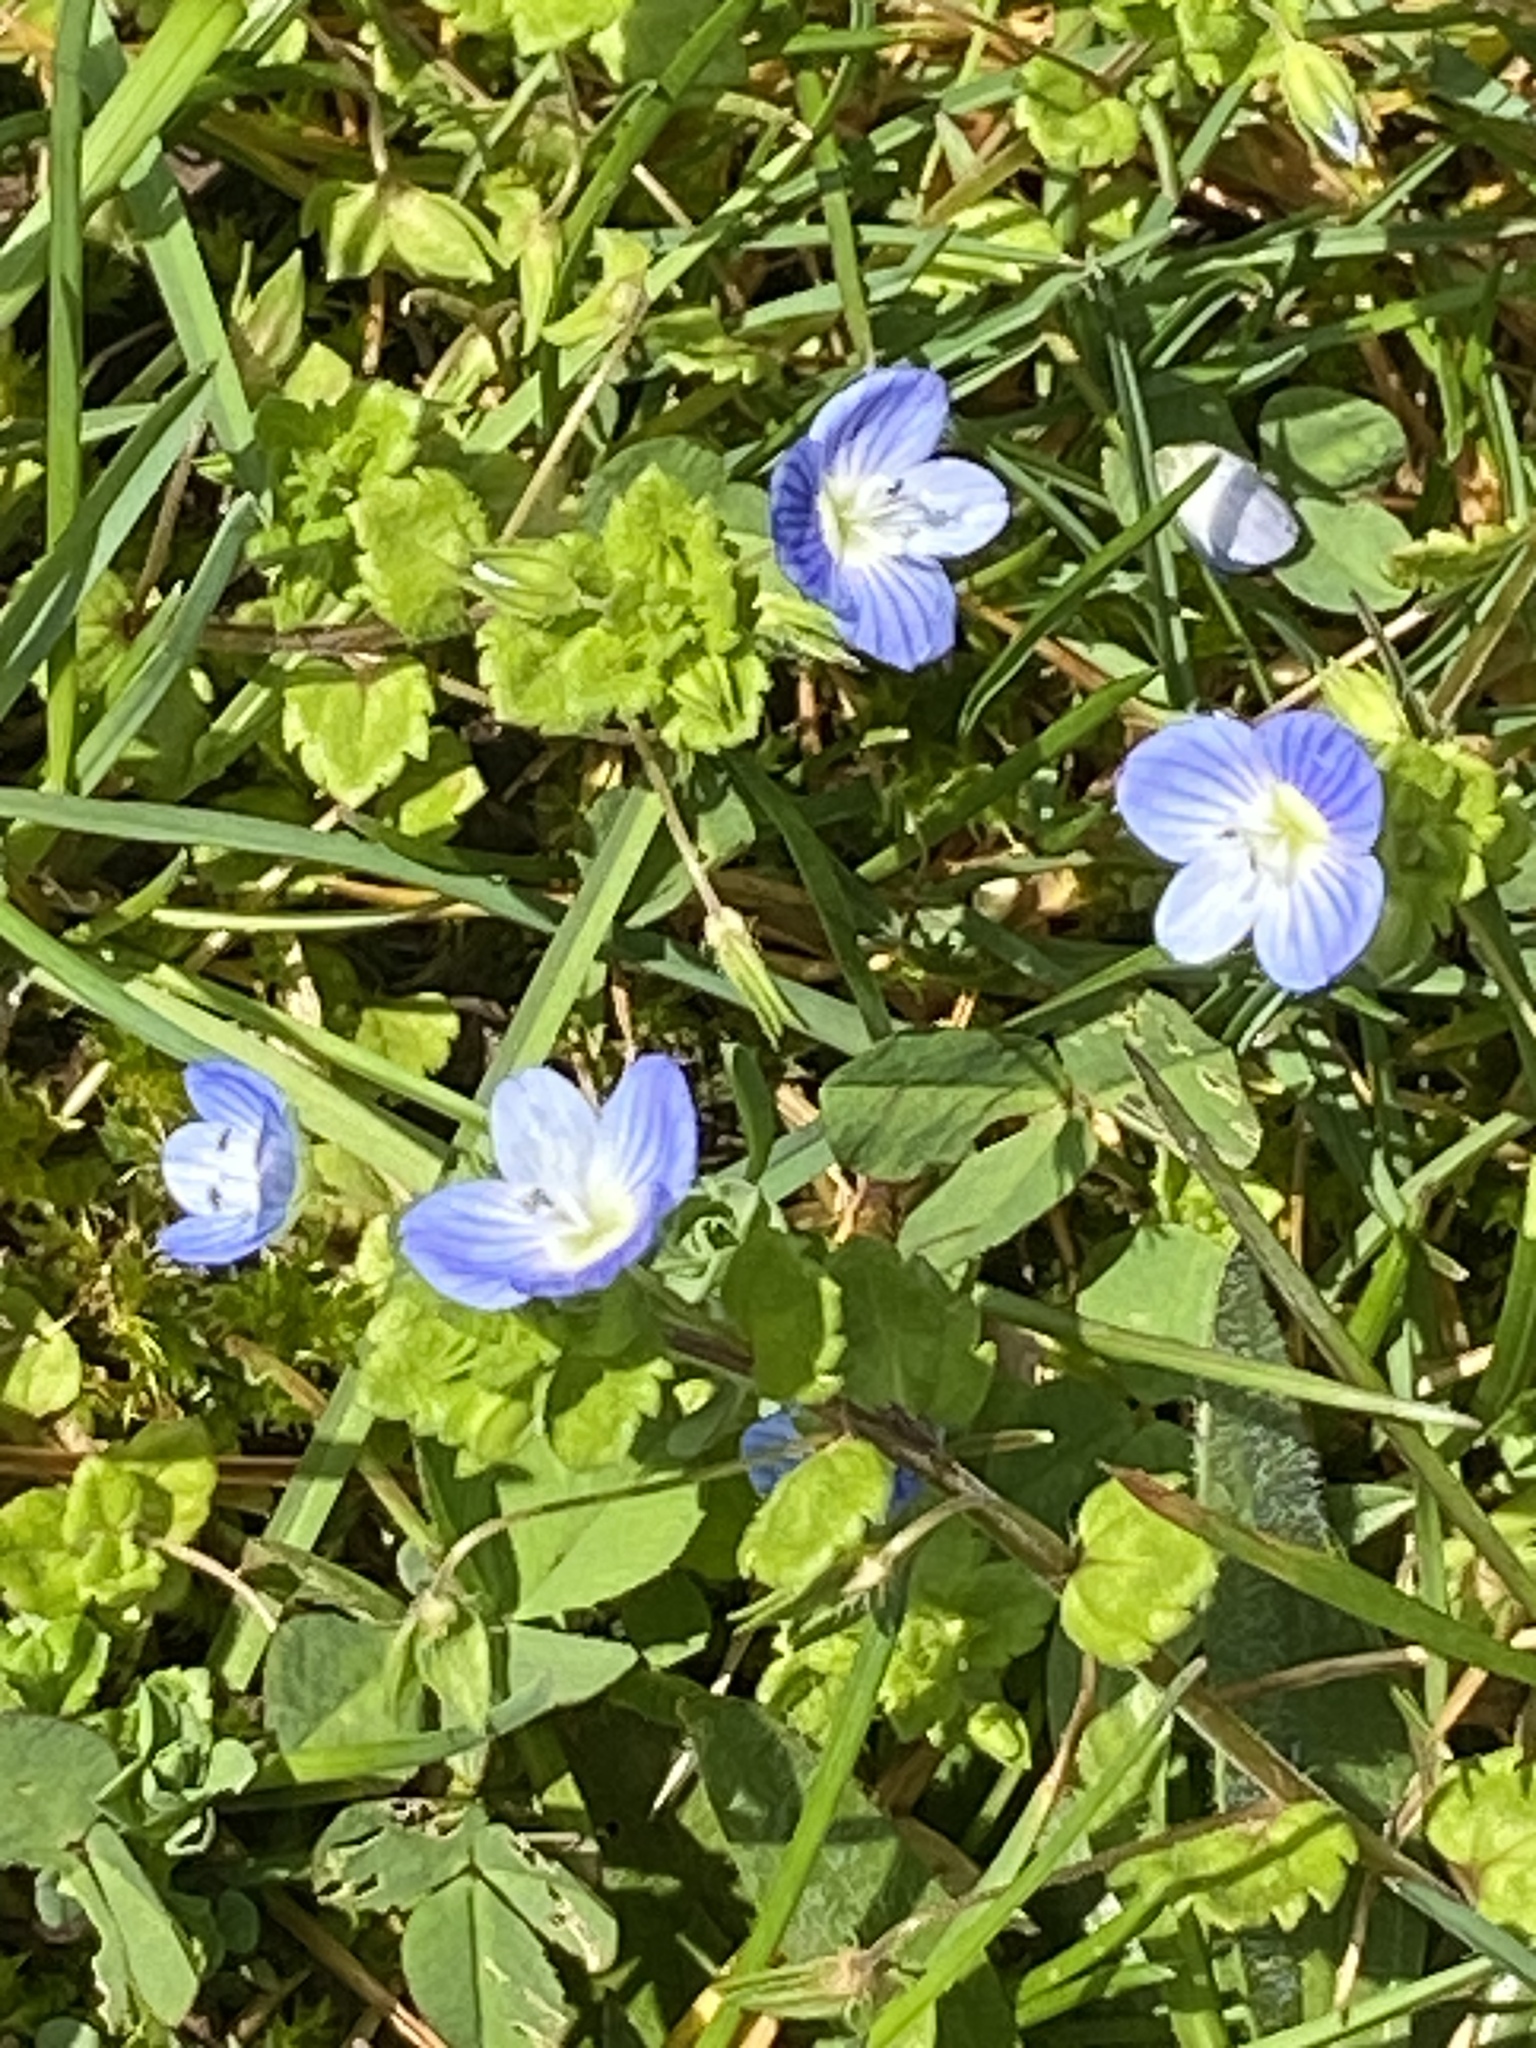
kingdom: Plantae
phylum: Tracheophyta
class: Magnoliopsida
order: Lamiales
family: Plantaginaceae
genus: Veronica
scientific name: Veronica persica
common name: Common field-speedwell
